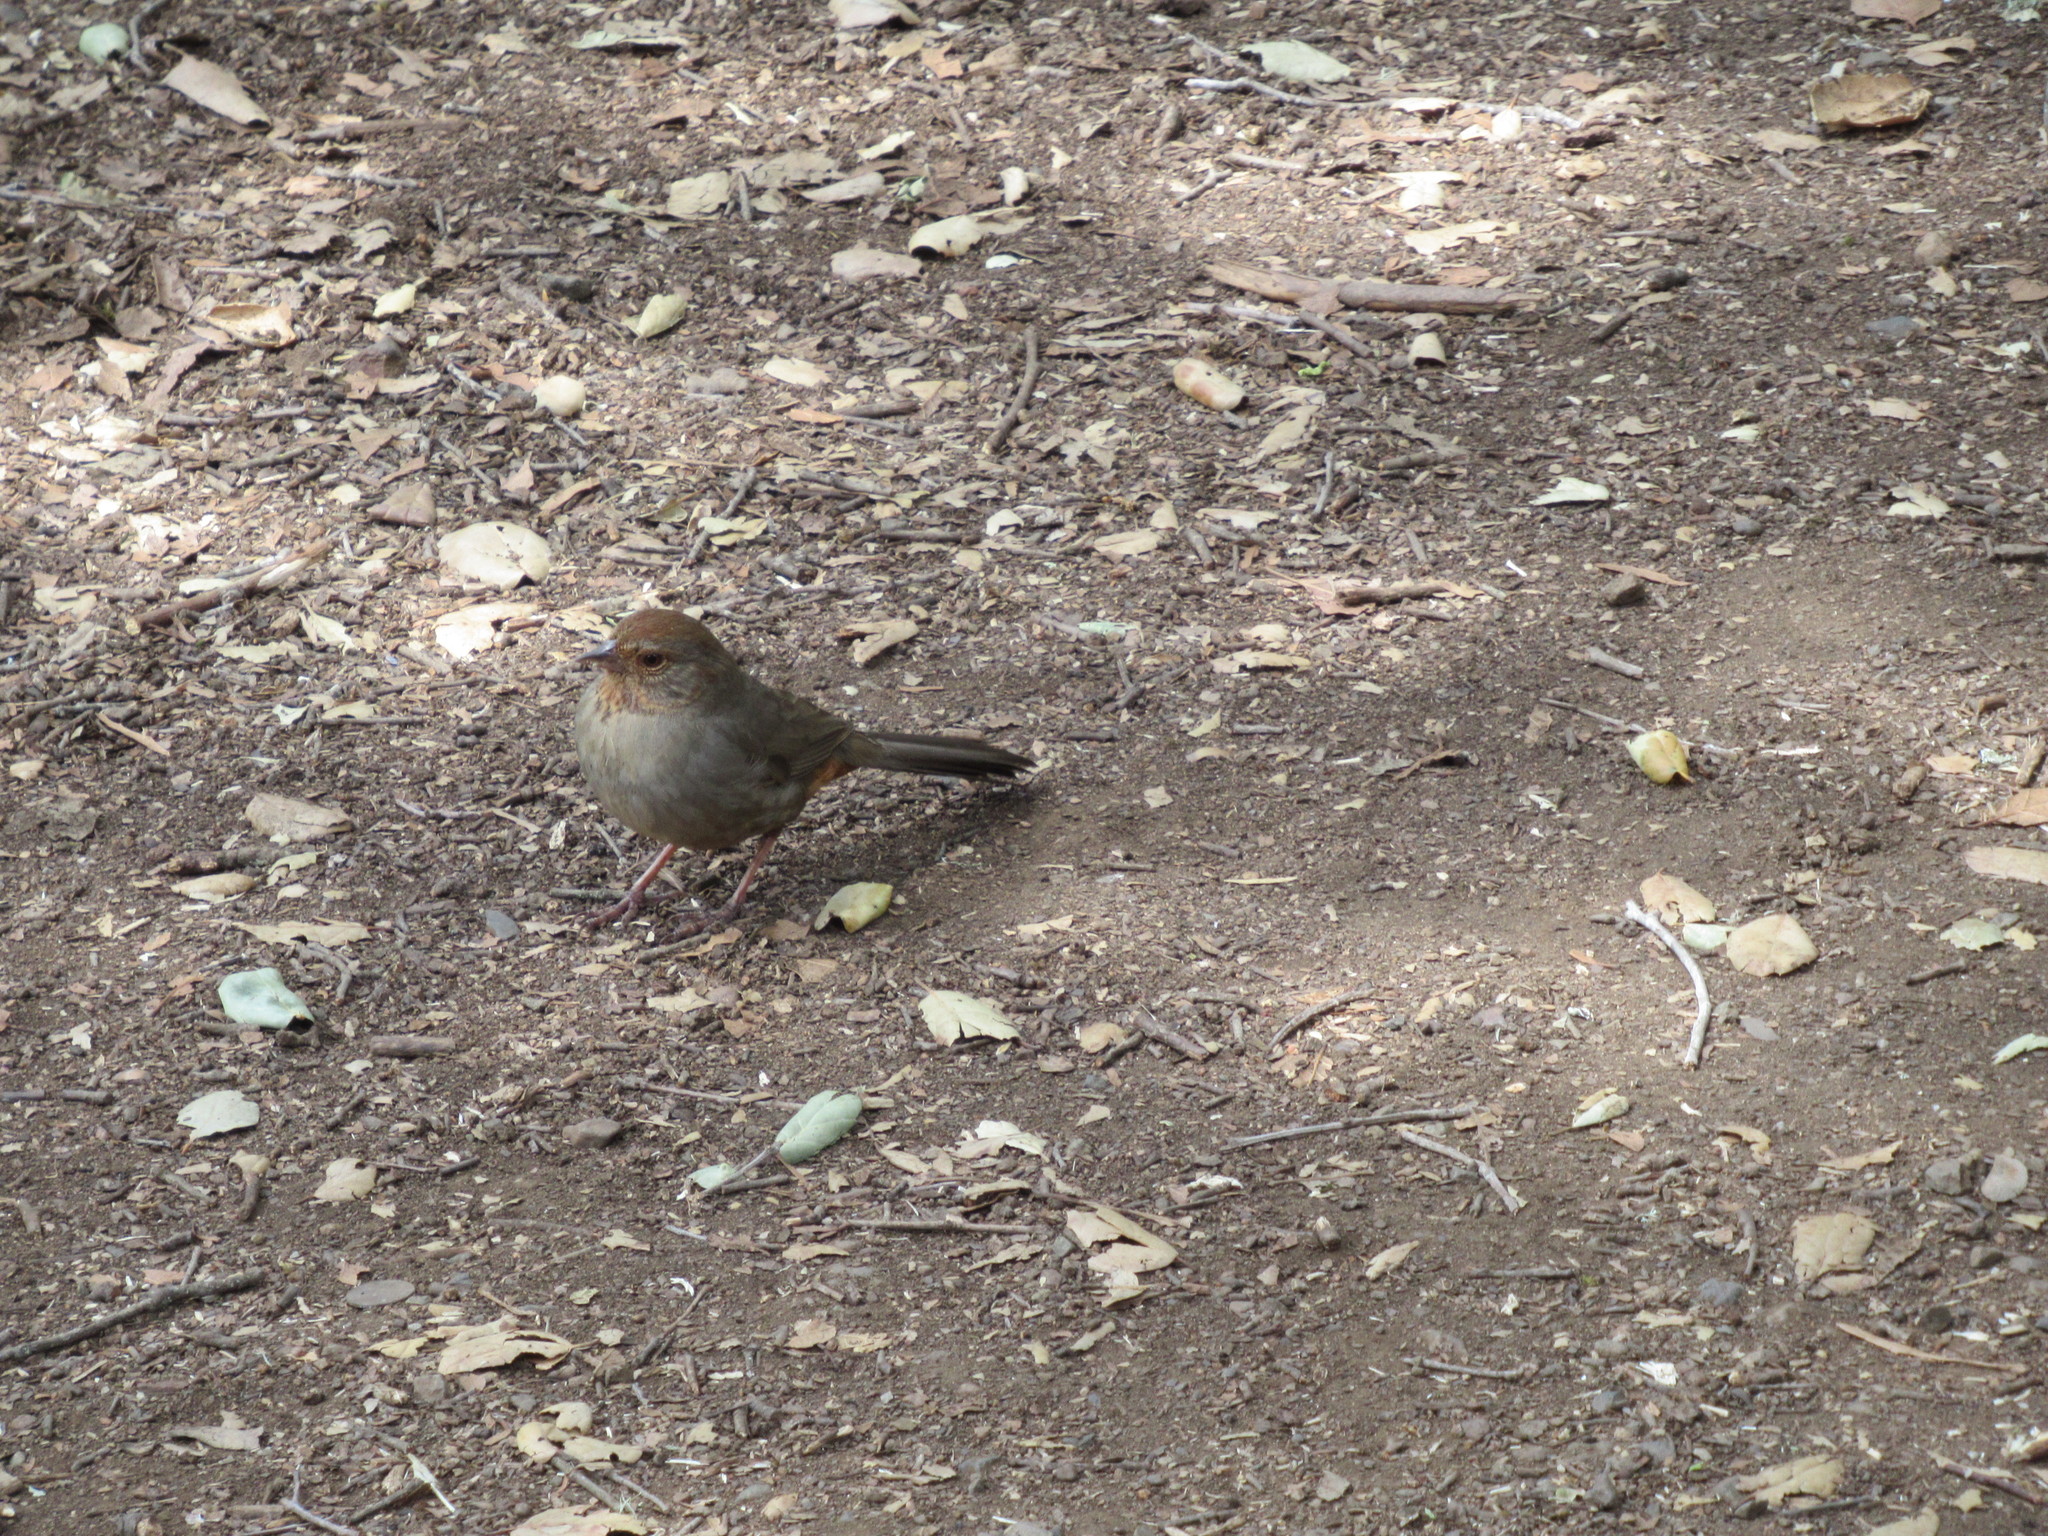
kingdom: Animalia
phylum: Chordata
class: Aves
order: Passeriformes
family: Passerellidae
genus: Melozone
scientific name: Melozone crissalis
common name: California towhee
